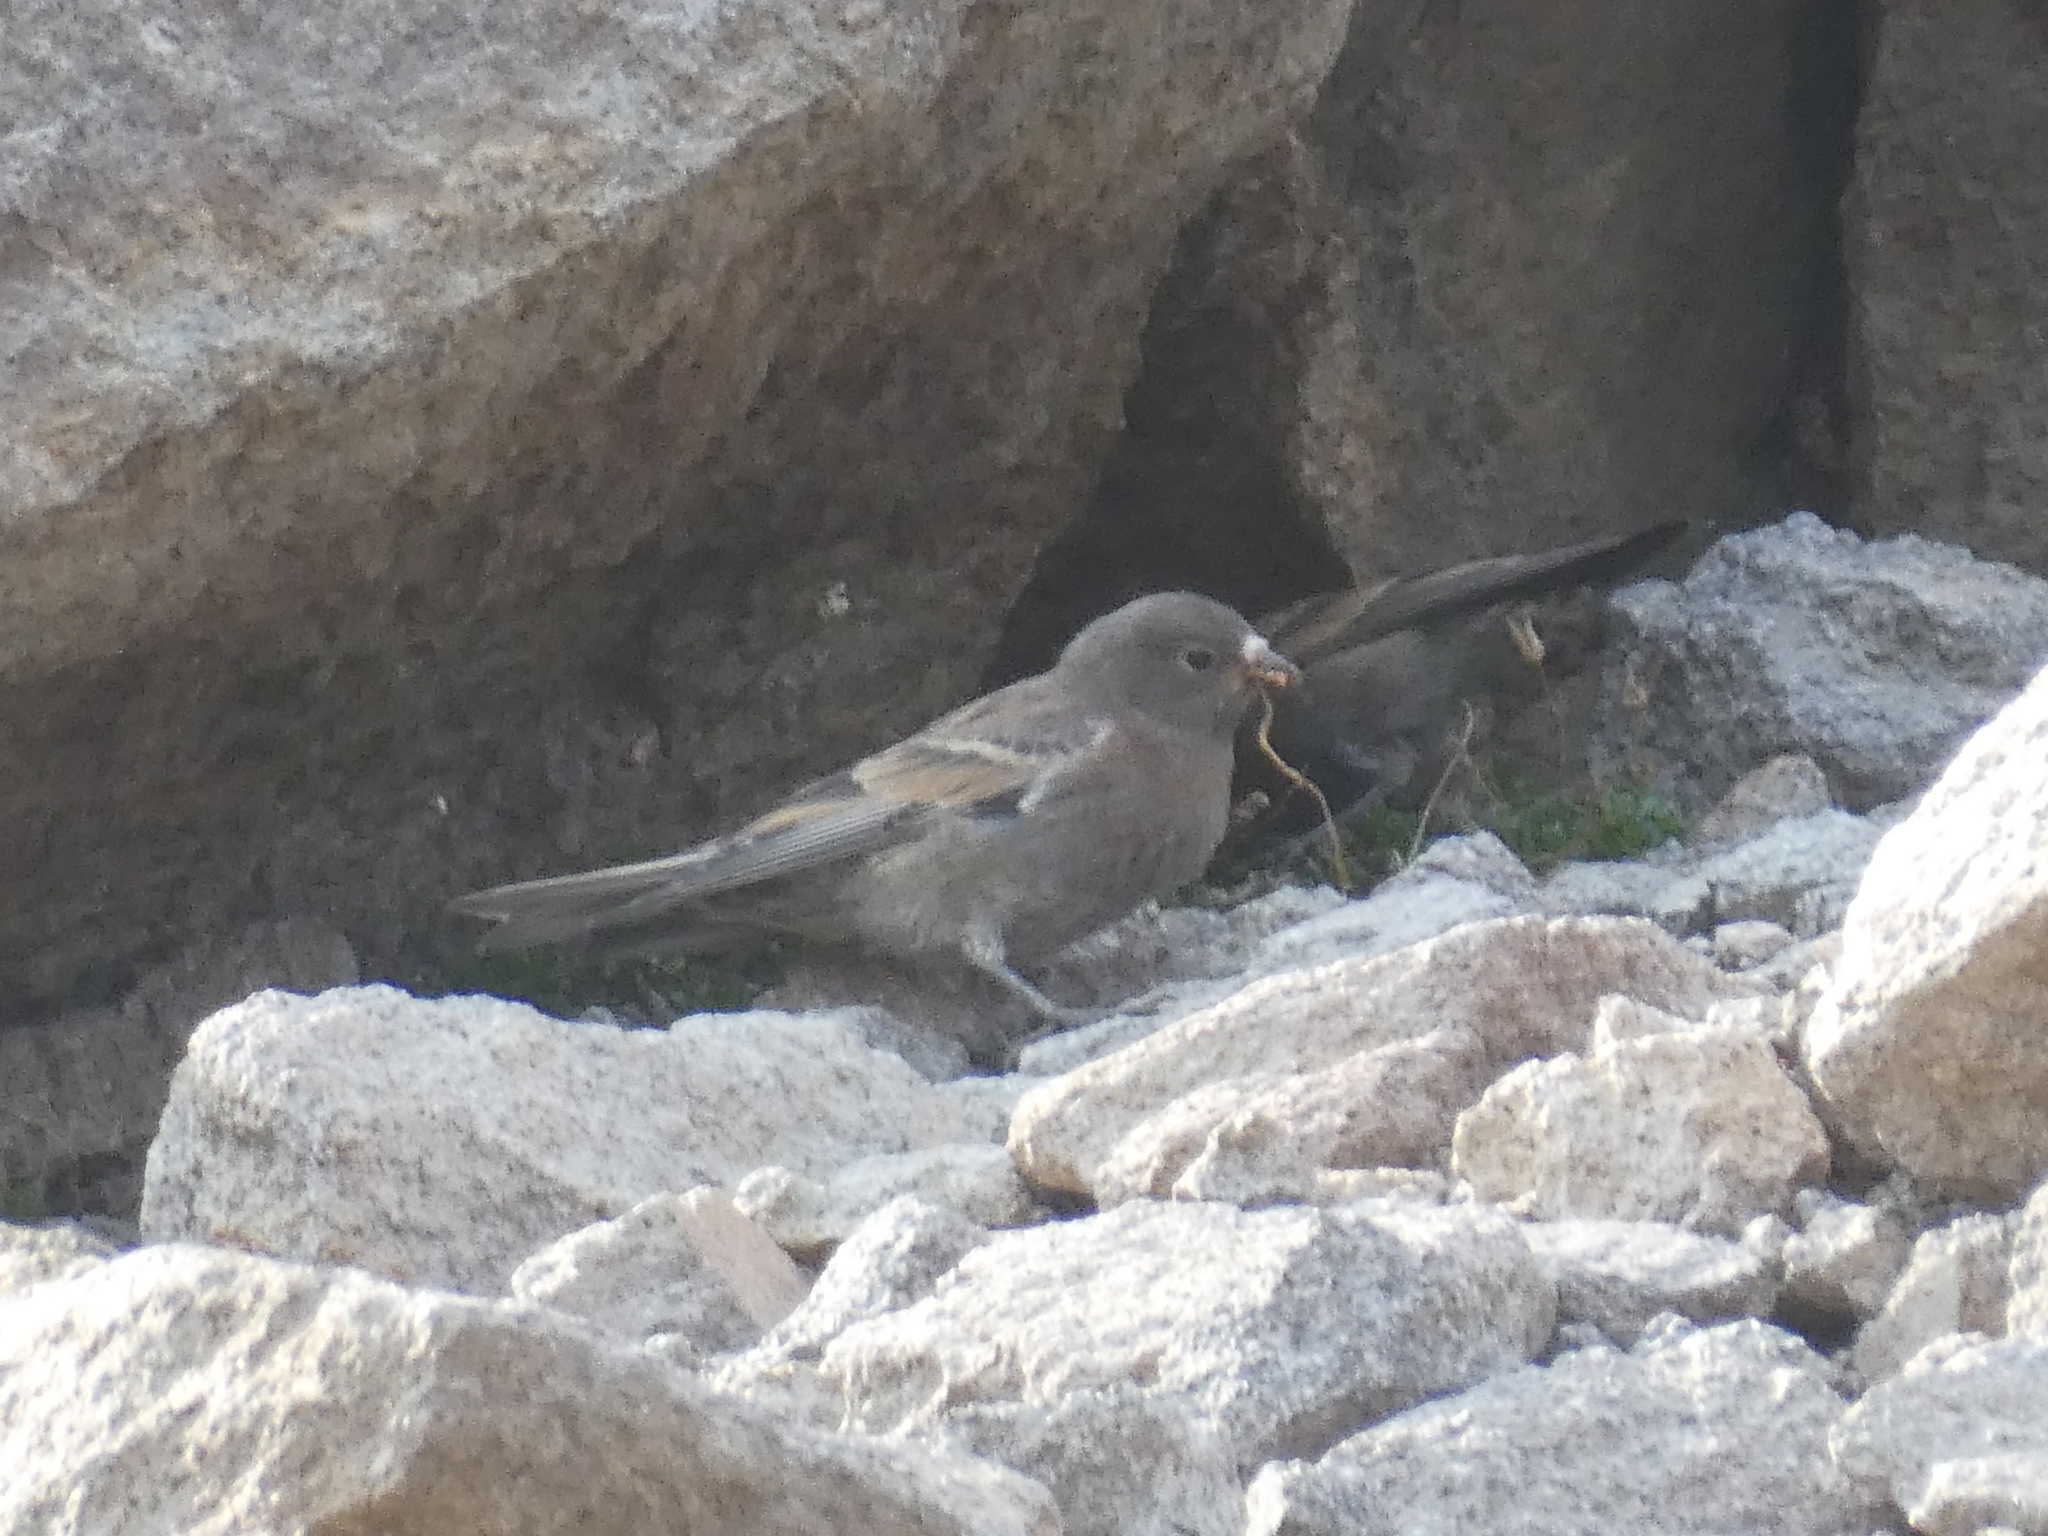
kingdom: Animalia
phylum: Chordata
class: Aves
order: Passeriformes
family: Fringillidae
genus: Leucosticte
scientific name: Leucosticte tephrocotis
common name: Gray-crowned rosy-finch
